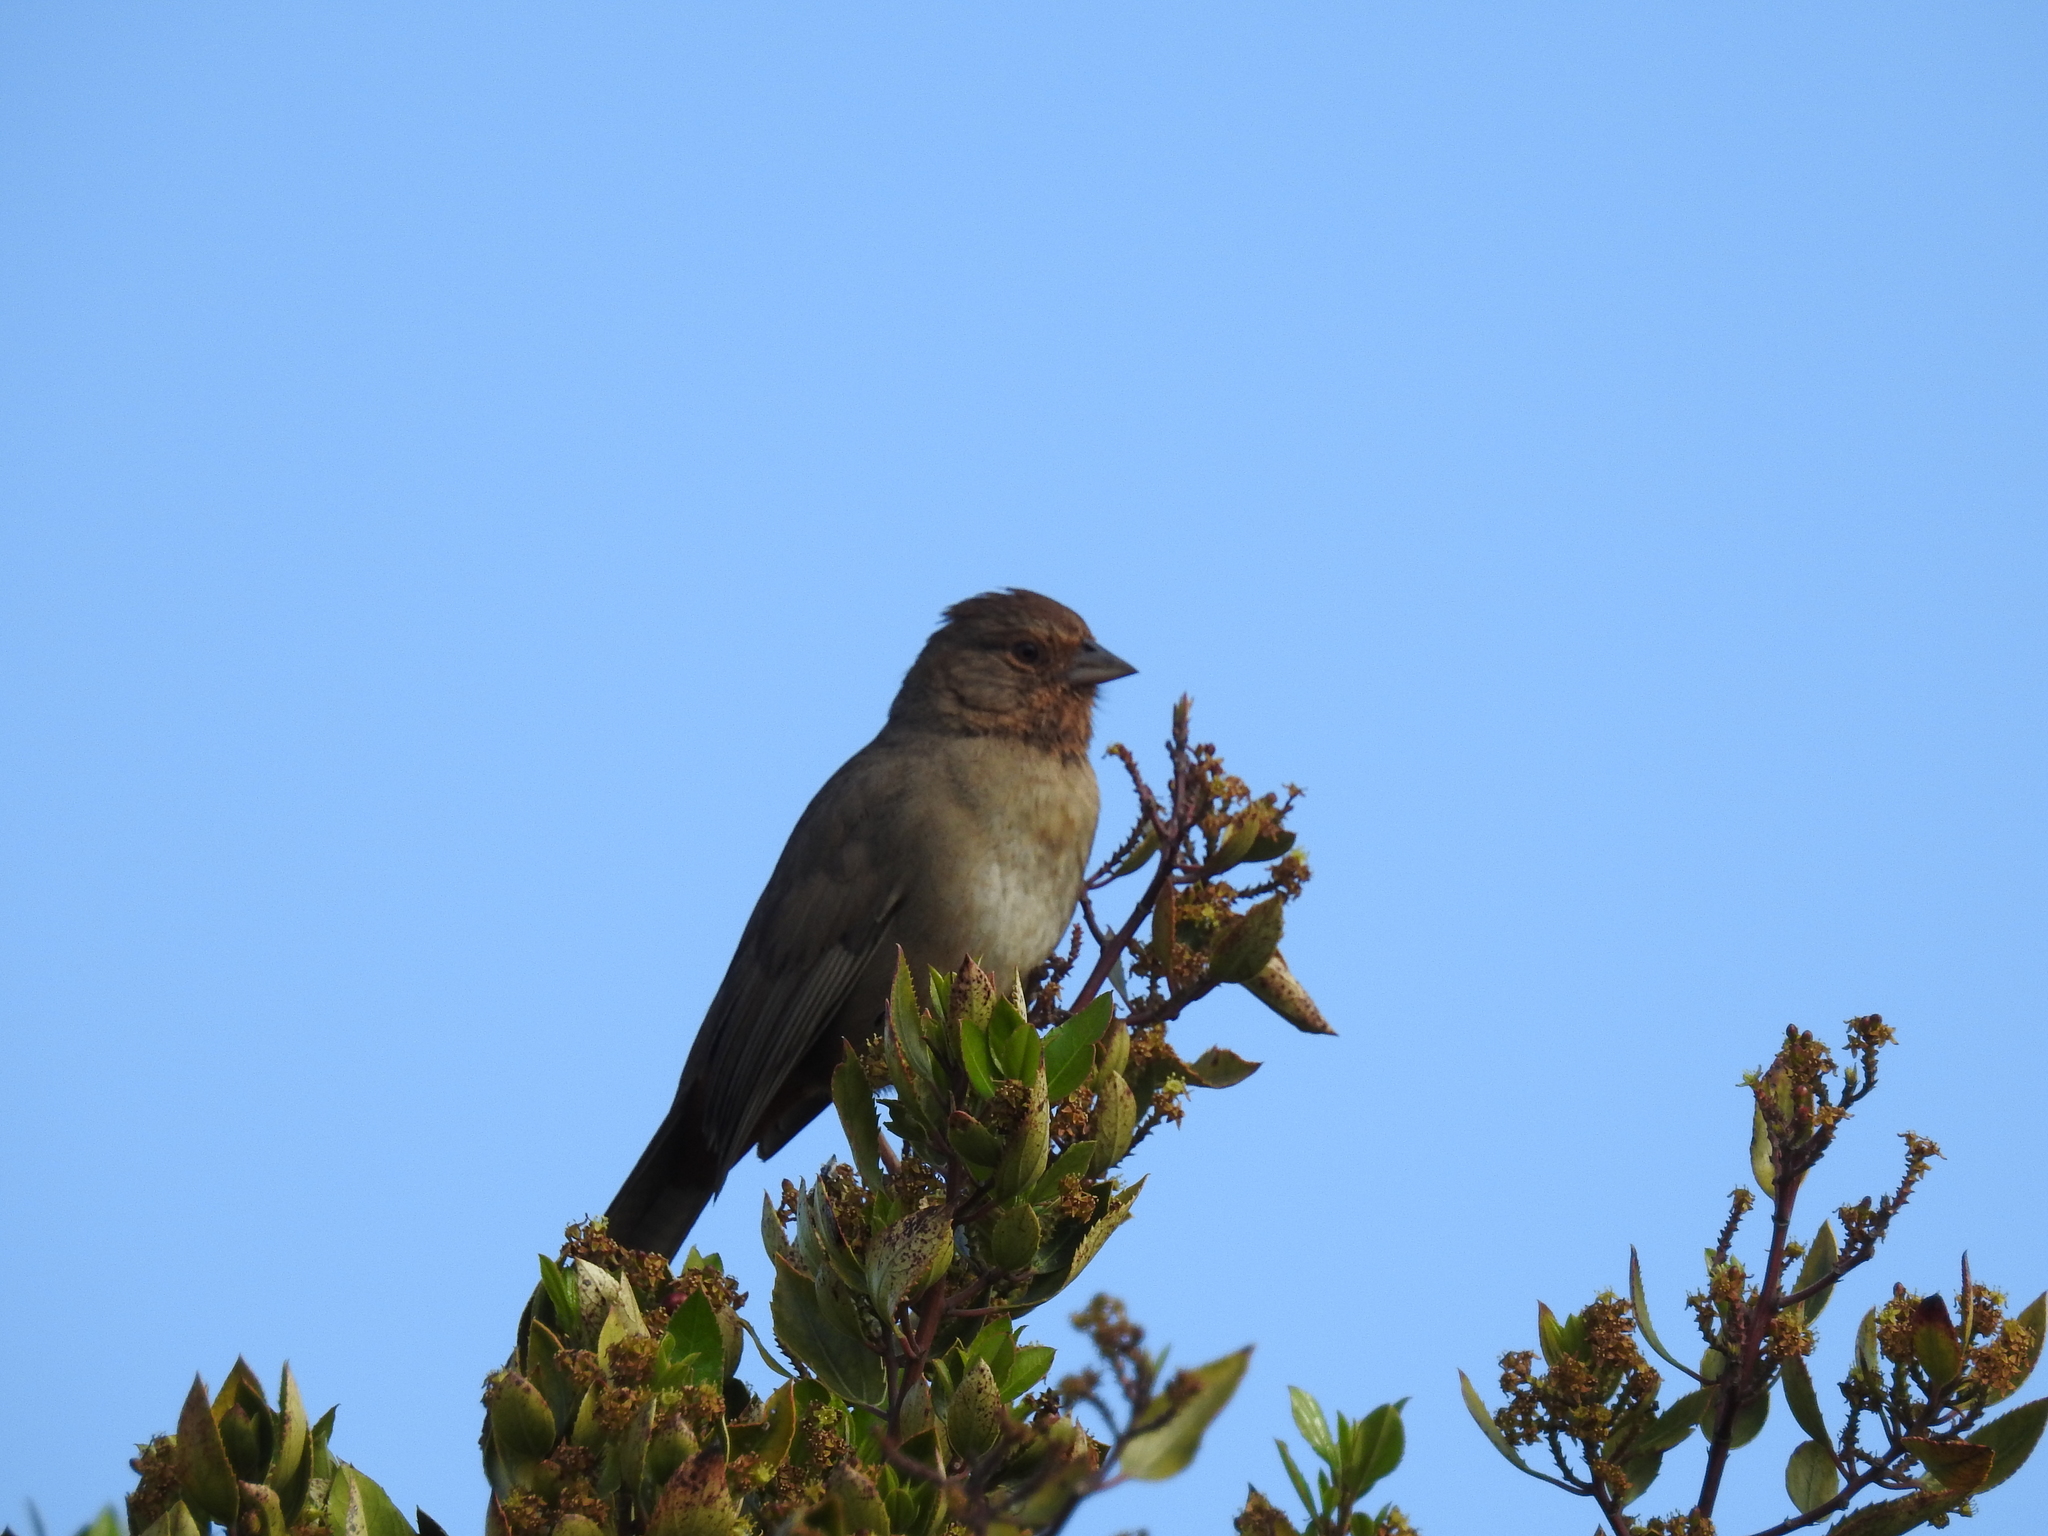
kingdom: Animalia
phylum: Chordata
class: Aves
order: Passeriformes
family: Passerellidae
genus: Melozone
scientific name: Melozone crissalis
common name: California towhee
